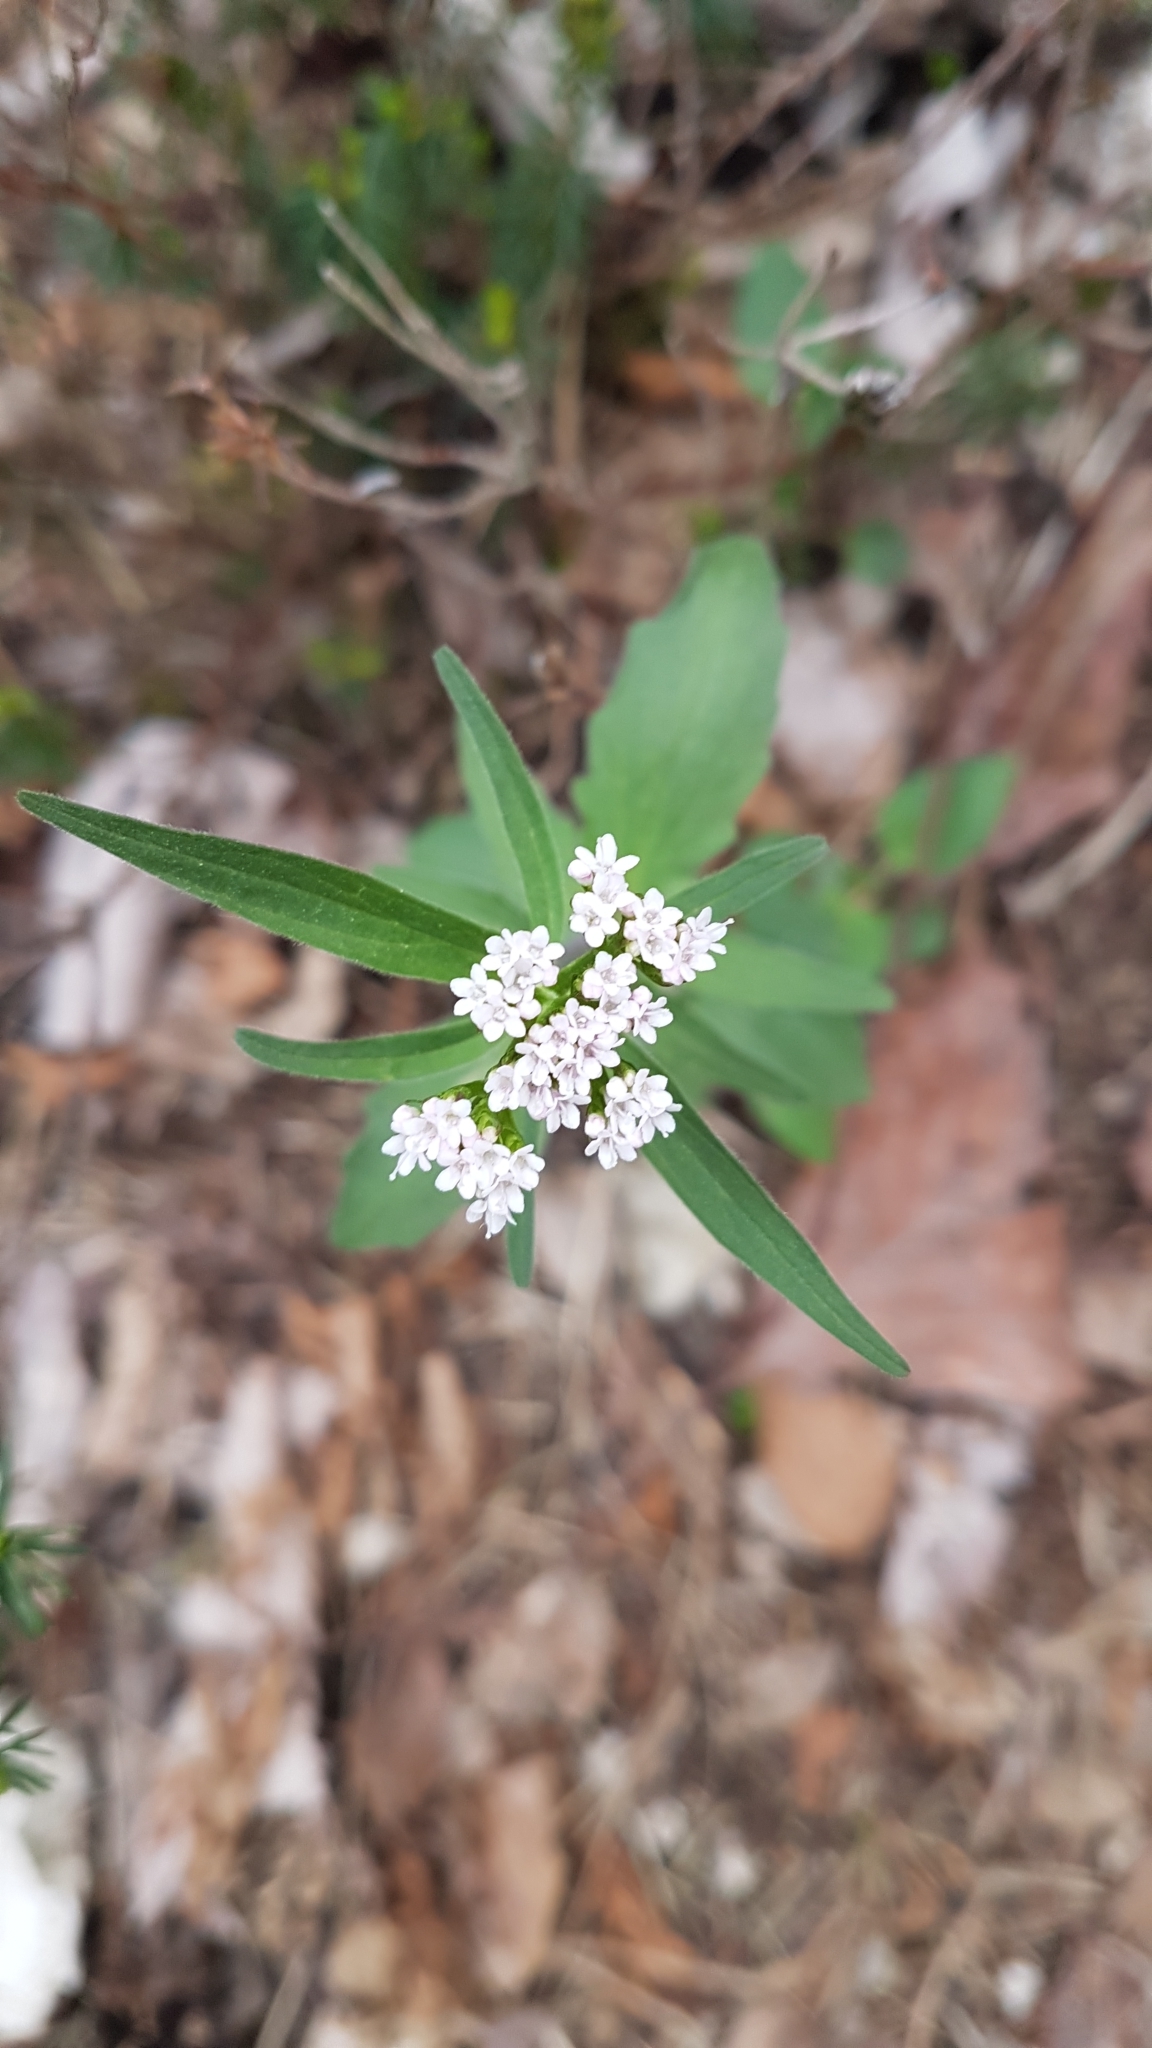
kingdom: Plantae
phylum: Tracheophyta
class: Magnoliopsida
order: Dipsacales
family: Caprifoliaceae
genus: Valeriana
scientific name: Valeriana tripteris
